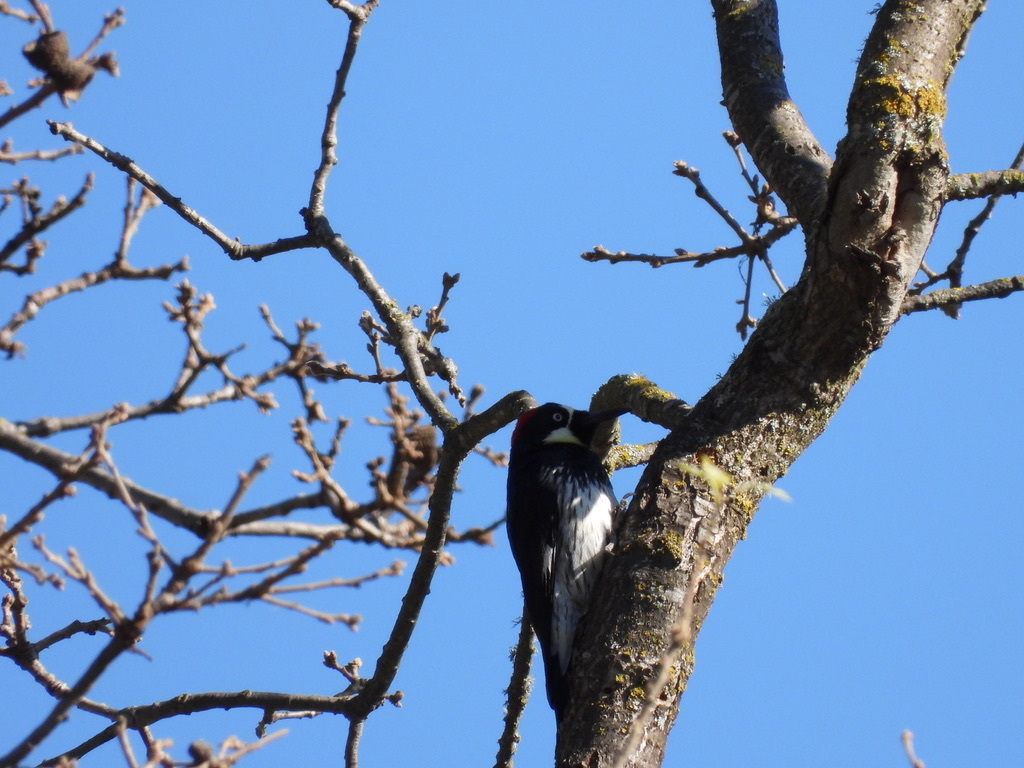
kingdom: Animalia
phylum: Chordata
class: Aves
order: Piciformes
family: Picidae
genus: Melanerpes
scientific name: Melanerpes formicivorus
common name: Acorn woodpecker
